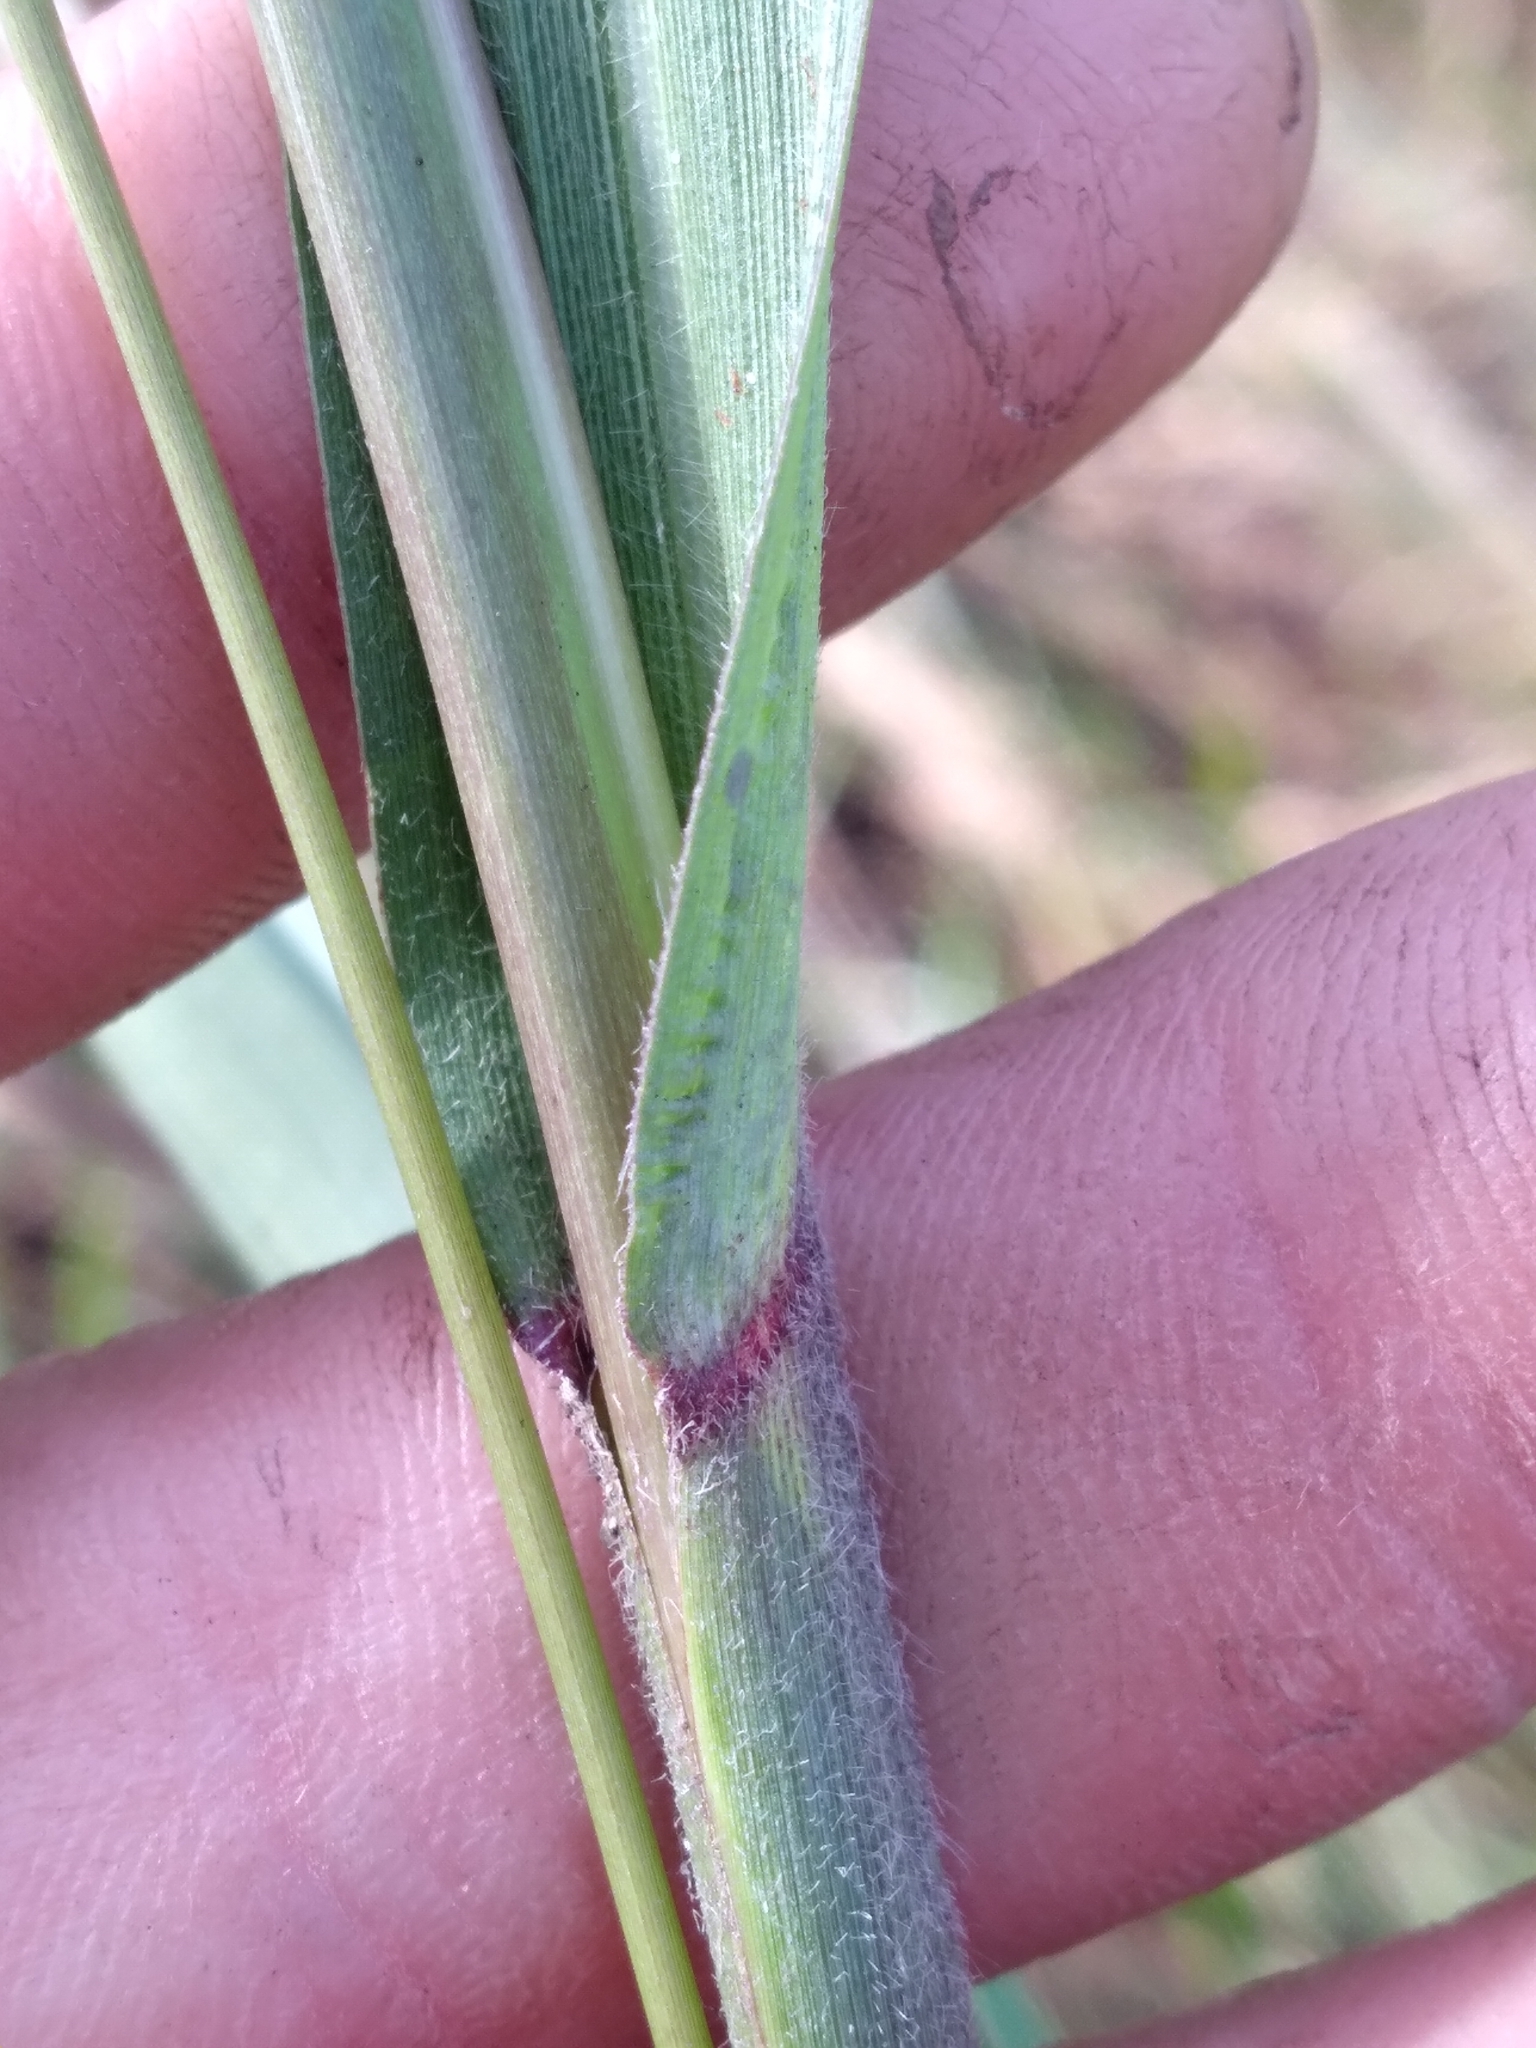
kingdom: Plantae
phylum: Tracheophyta
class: Liliopsida
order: Poales
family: Poaceae
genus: Coleataenia
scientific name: Coleataenia anceps
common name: Beaked panic grass
